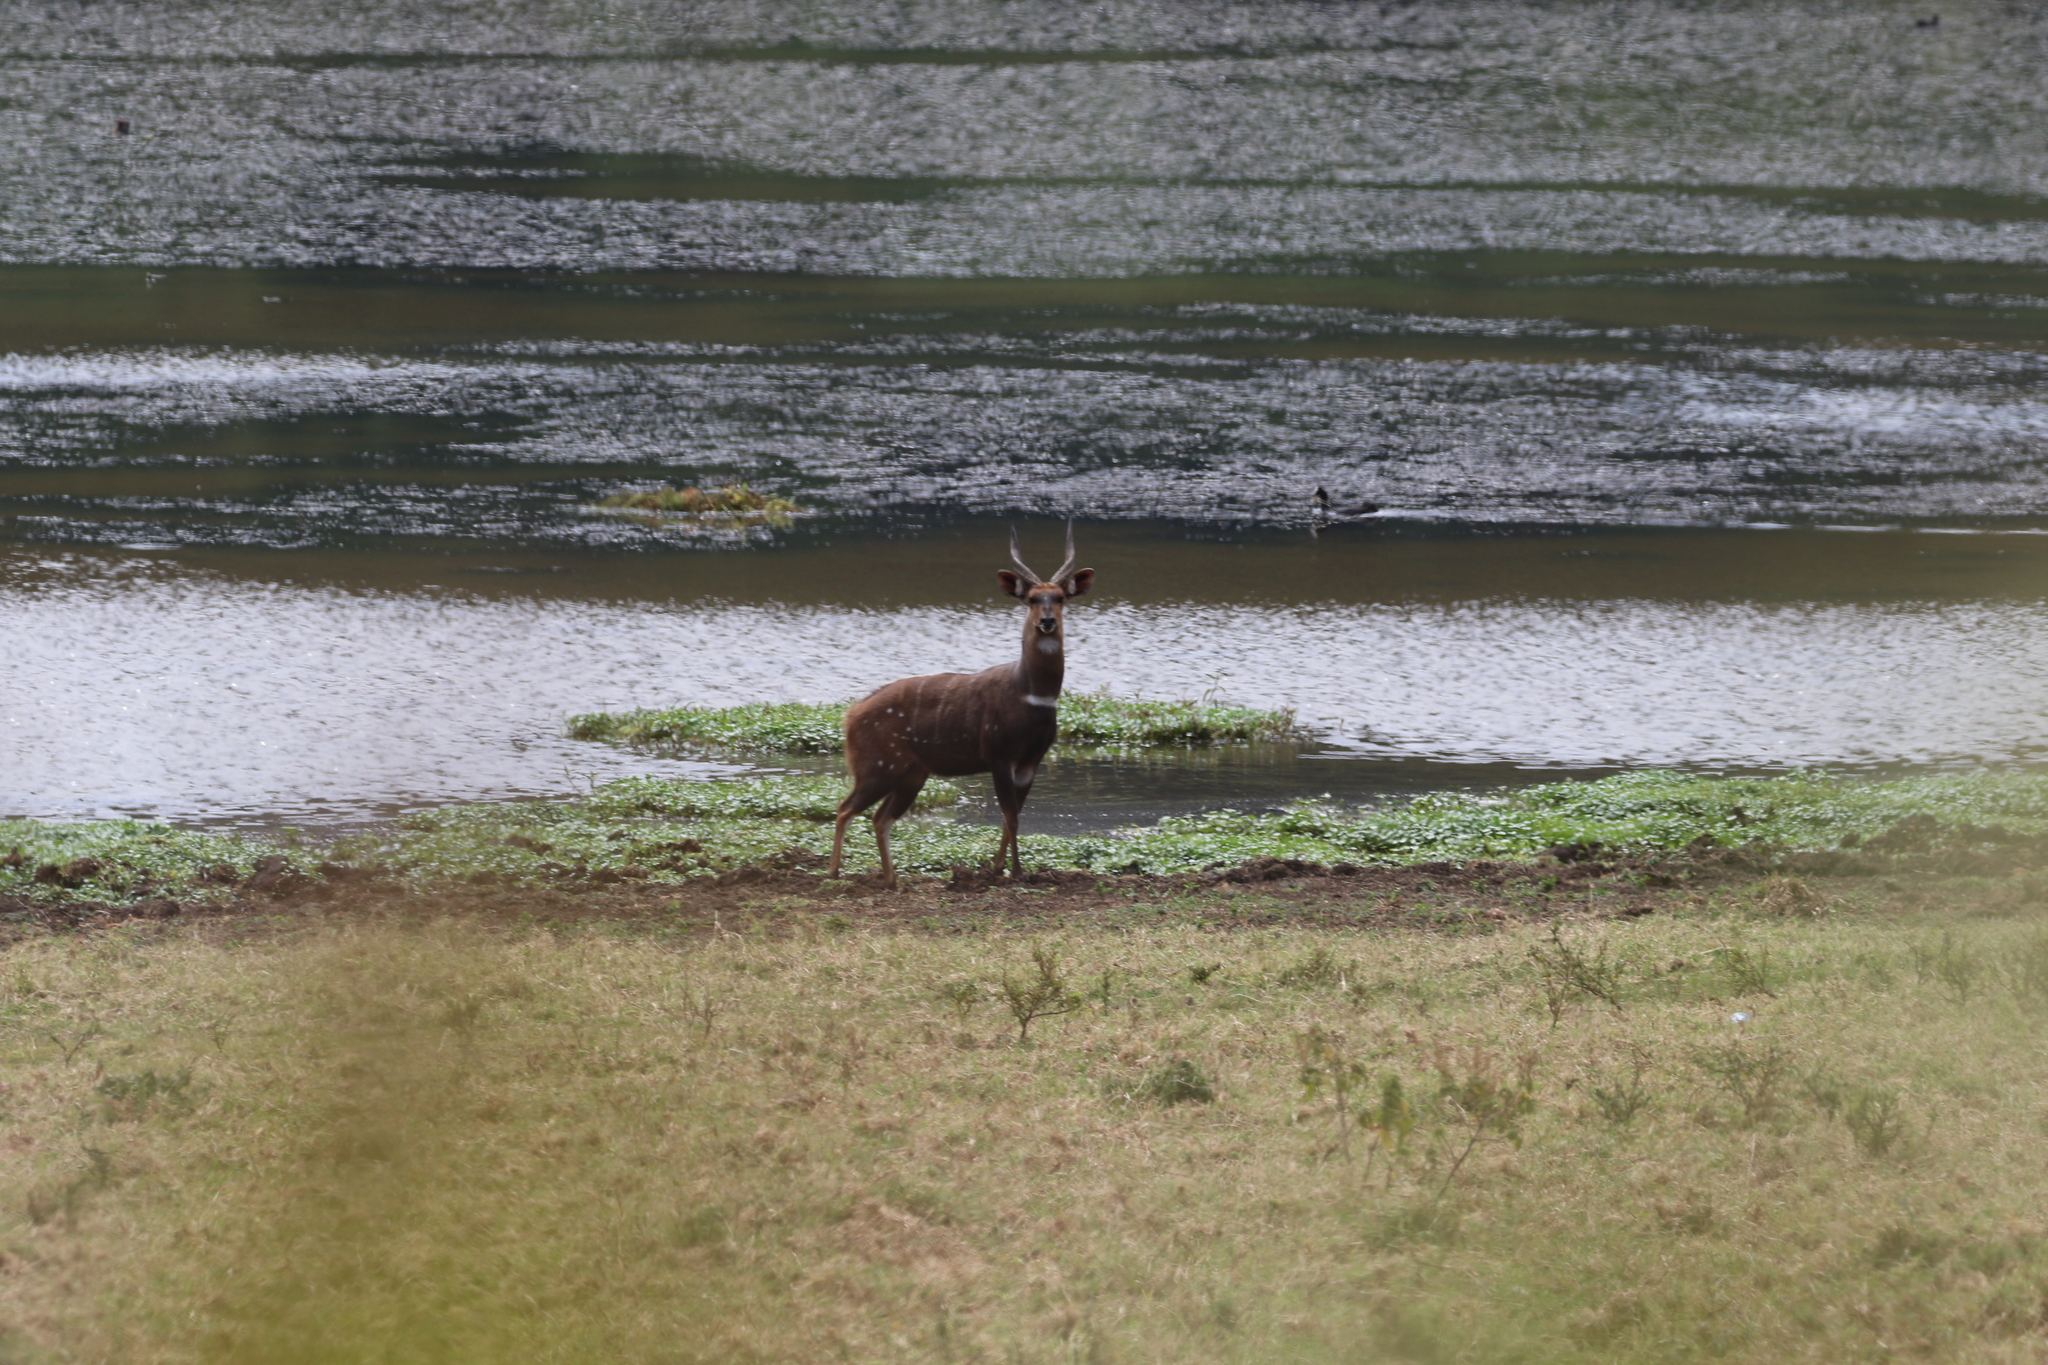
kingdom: Animalia
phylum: Chordata
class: Mammalia
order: Artiodactyla
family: Bovidae
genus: Tragelaphus
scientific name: Tragelaphus scriptus
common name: Bushbuck
